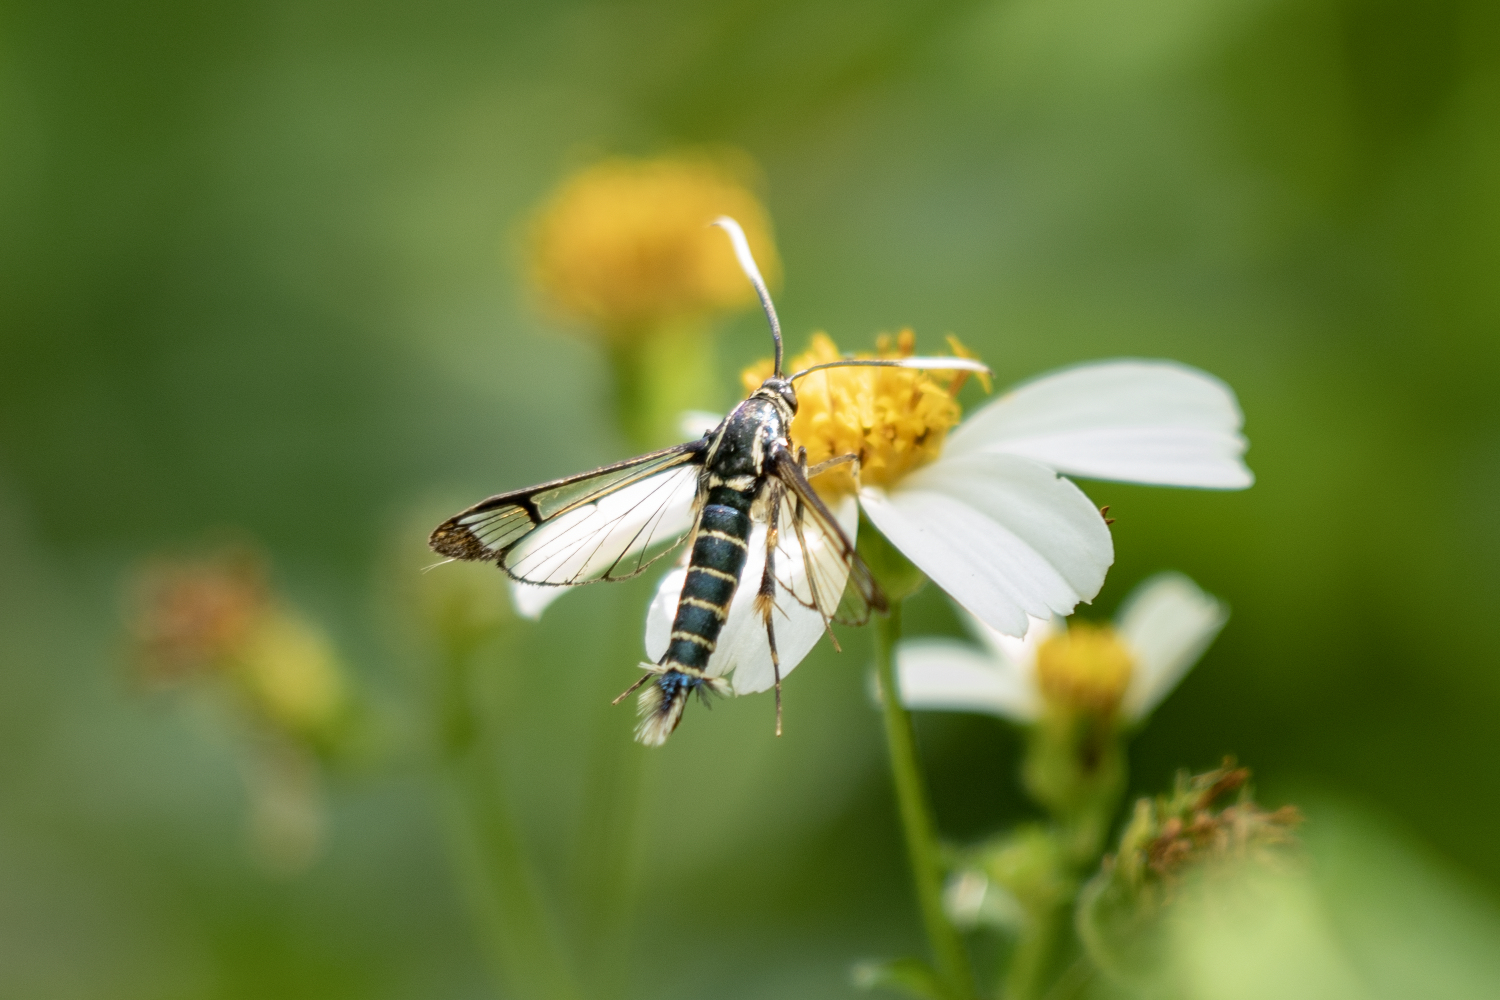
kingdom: Animalia
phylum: Arthropoda
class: Insecta
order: Lepidoptera
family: Sesiidae
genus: Ichneumonella
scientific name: Ichneumonella viridiflava
